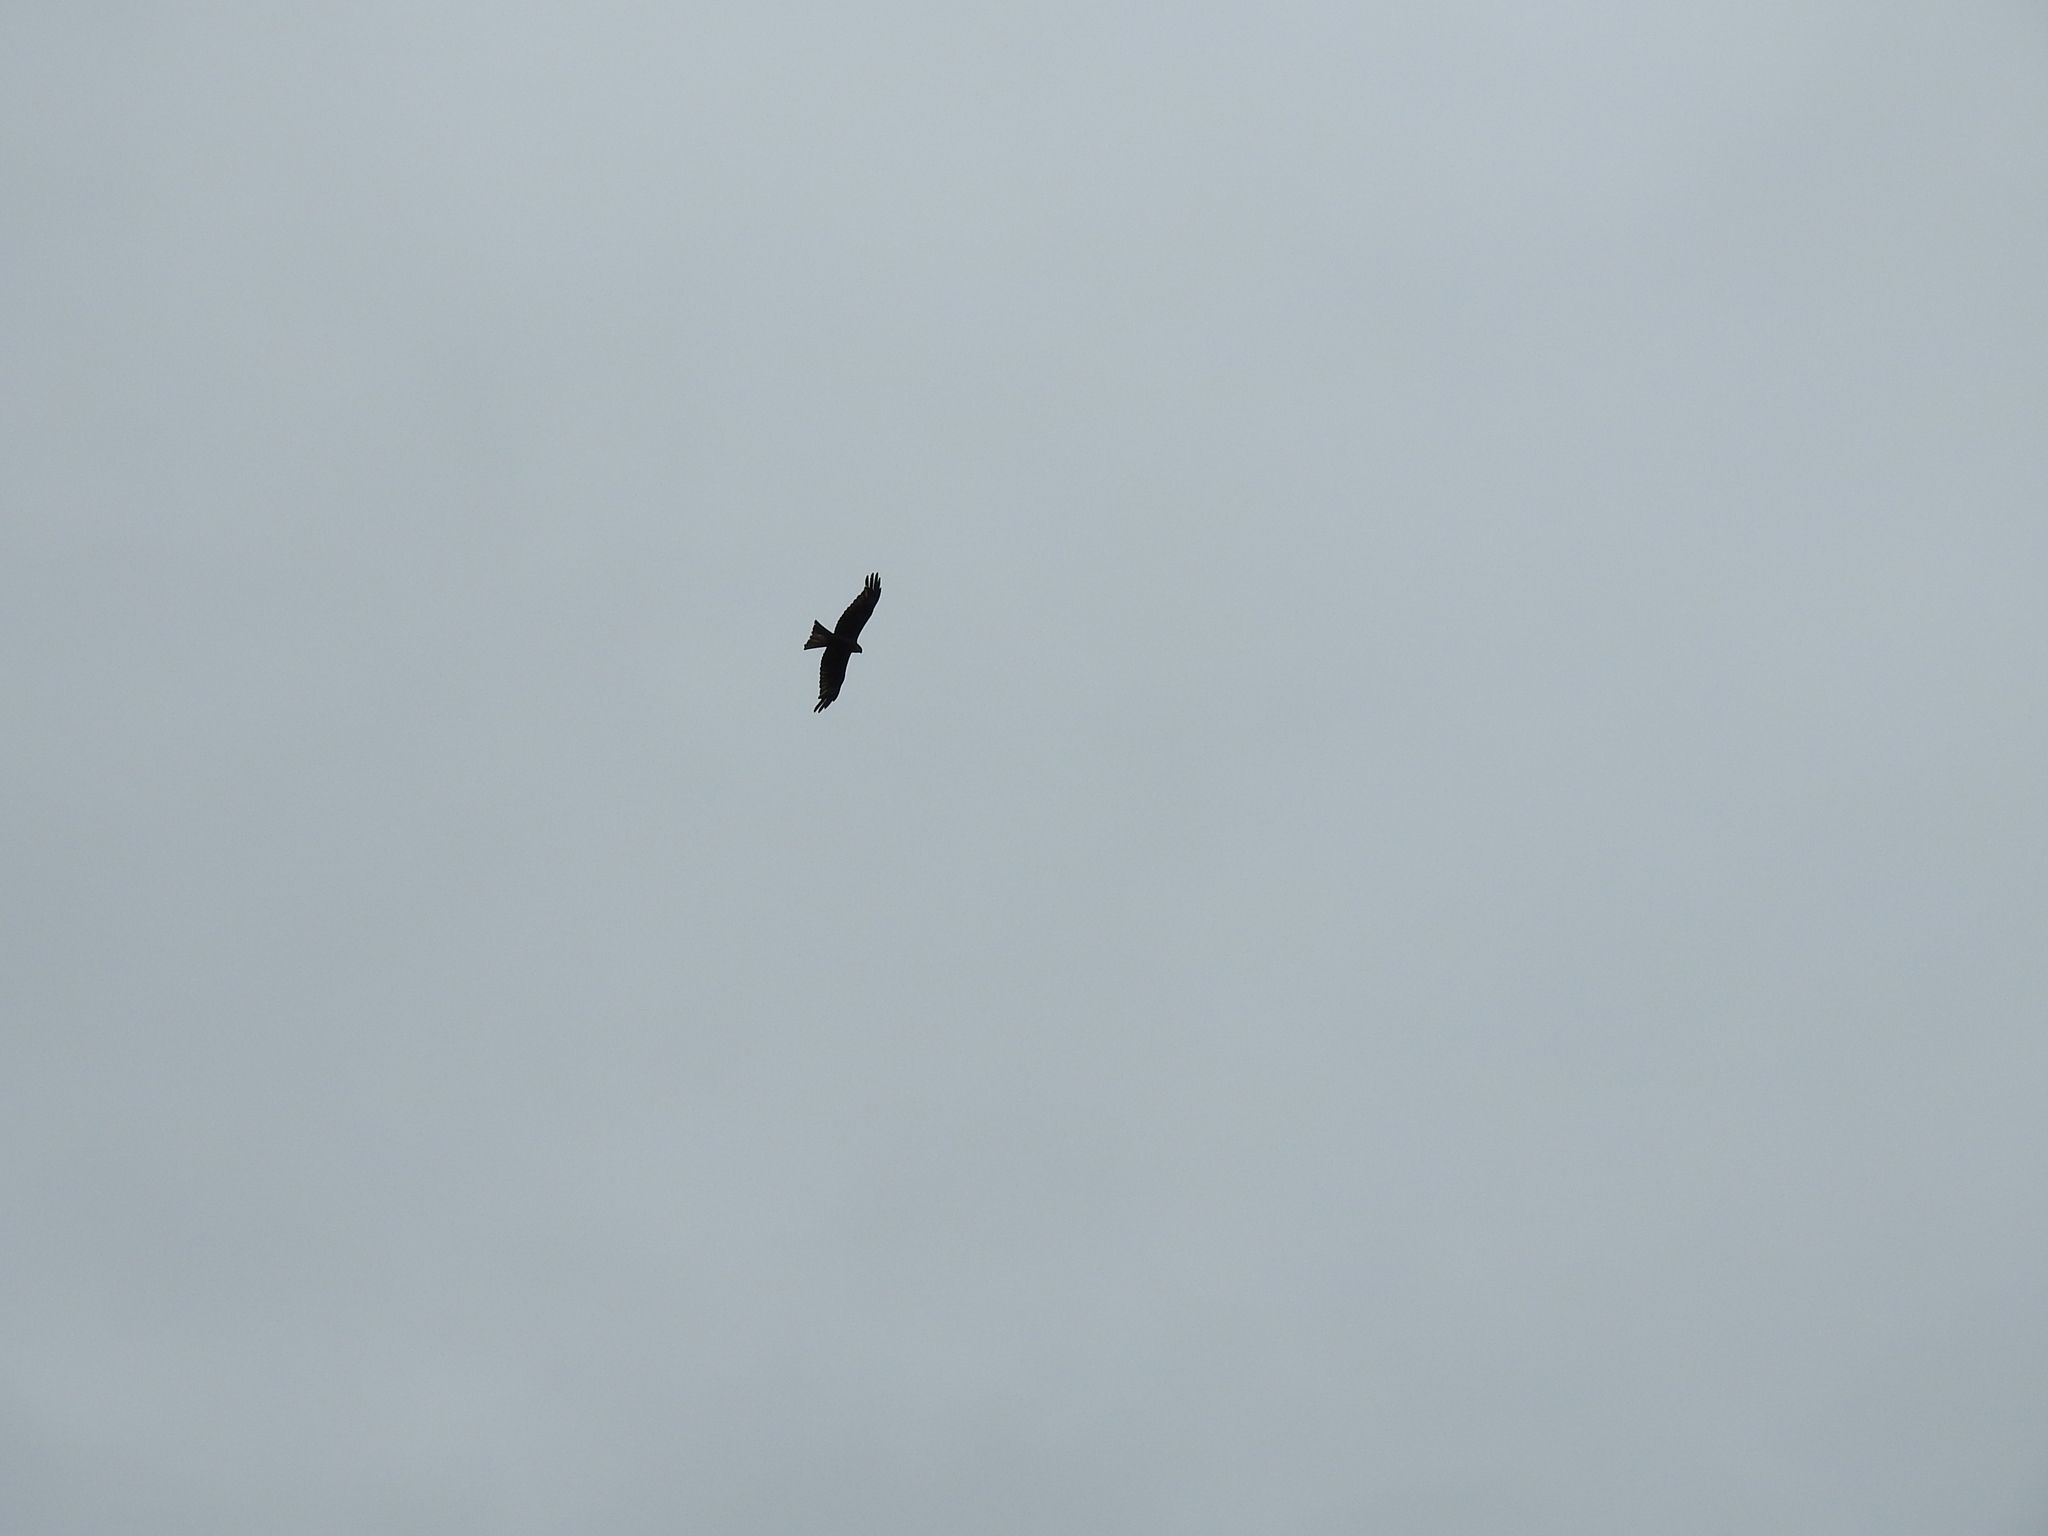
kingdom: Animalia
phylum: Chordata
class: Aves
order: Accipitriformes
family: Accipitridae
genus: Milvus
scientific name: Milvus migrans
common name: Black kite
